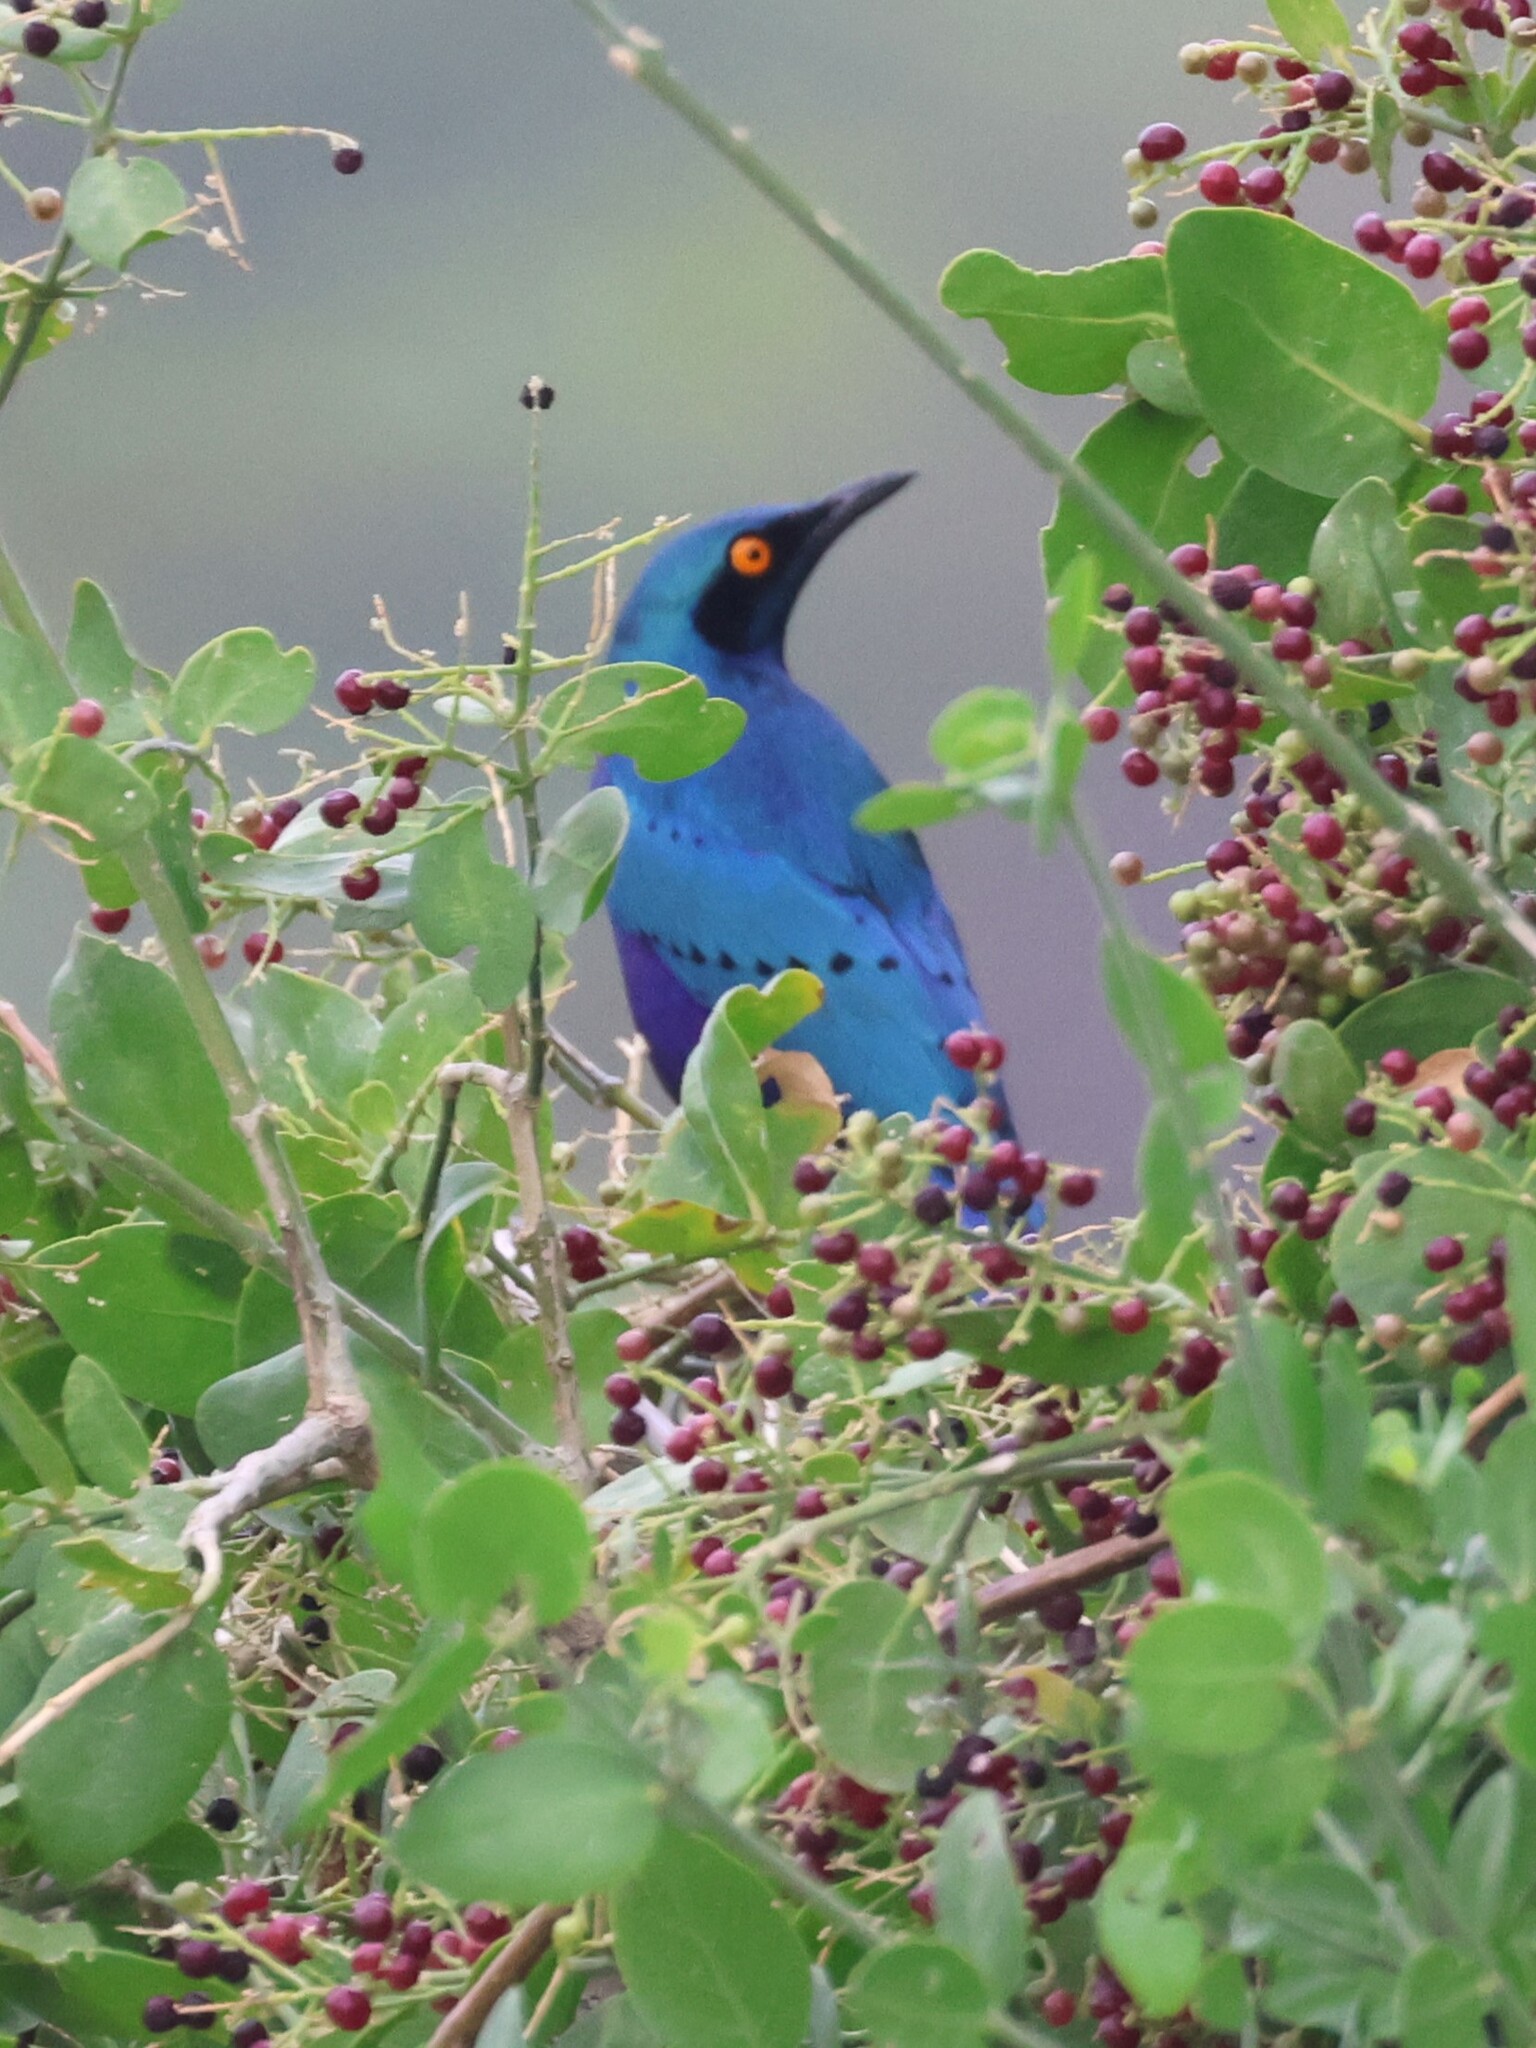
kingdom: Animalia
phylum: Chordata
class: Aves
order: Passeriformes
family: Sturnidae
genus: Lamprotornis
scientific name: Lamprotornis chalybaeus
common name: Greater blue-eared starling
